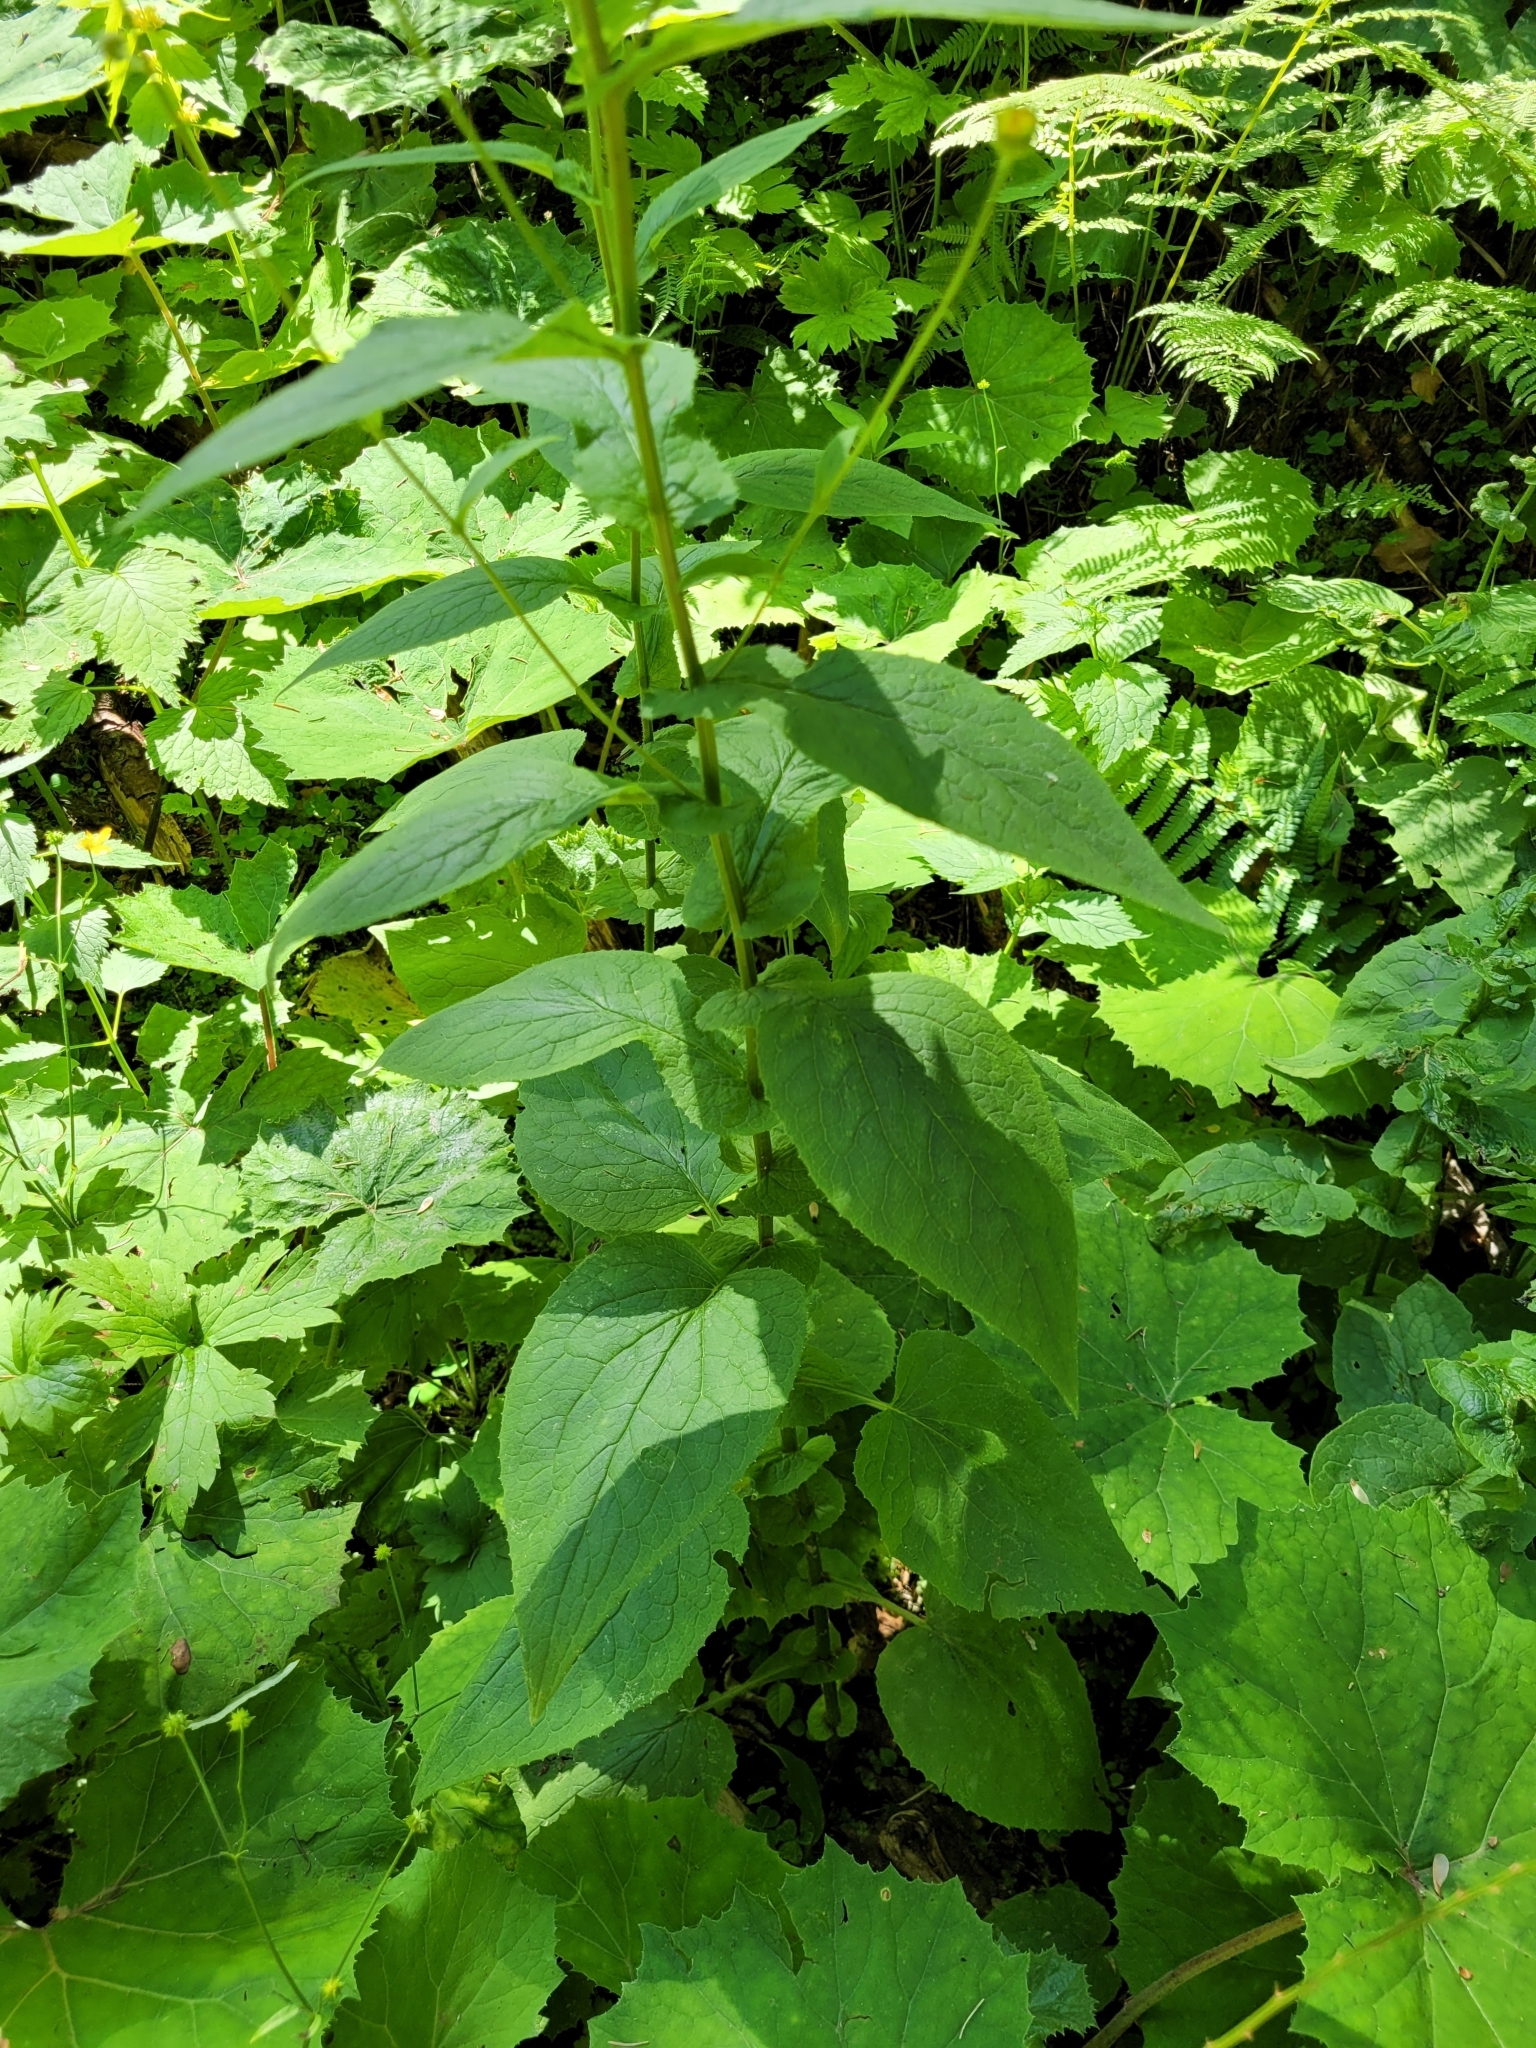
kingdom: Plantae
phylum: Tracheophyta
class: Magnoliopsida
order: Asterales
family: Asteraceae
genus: Doronicum
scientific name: Doronicum austriacum
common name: Austrian leopard's-bane
